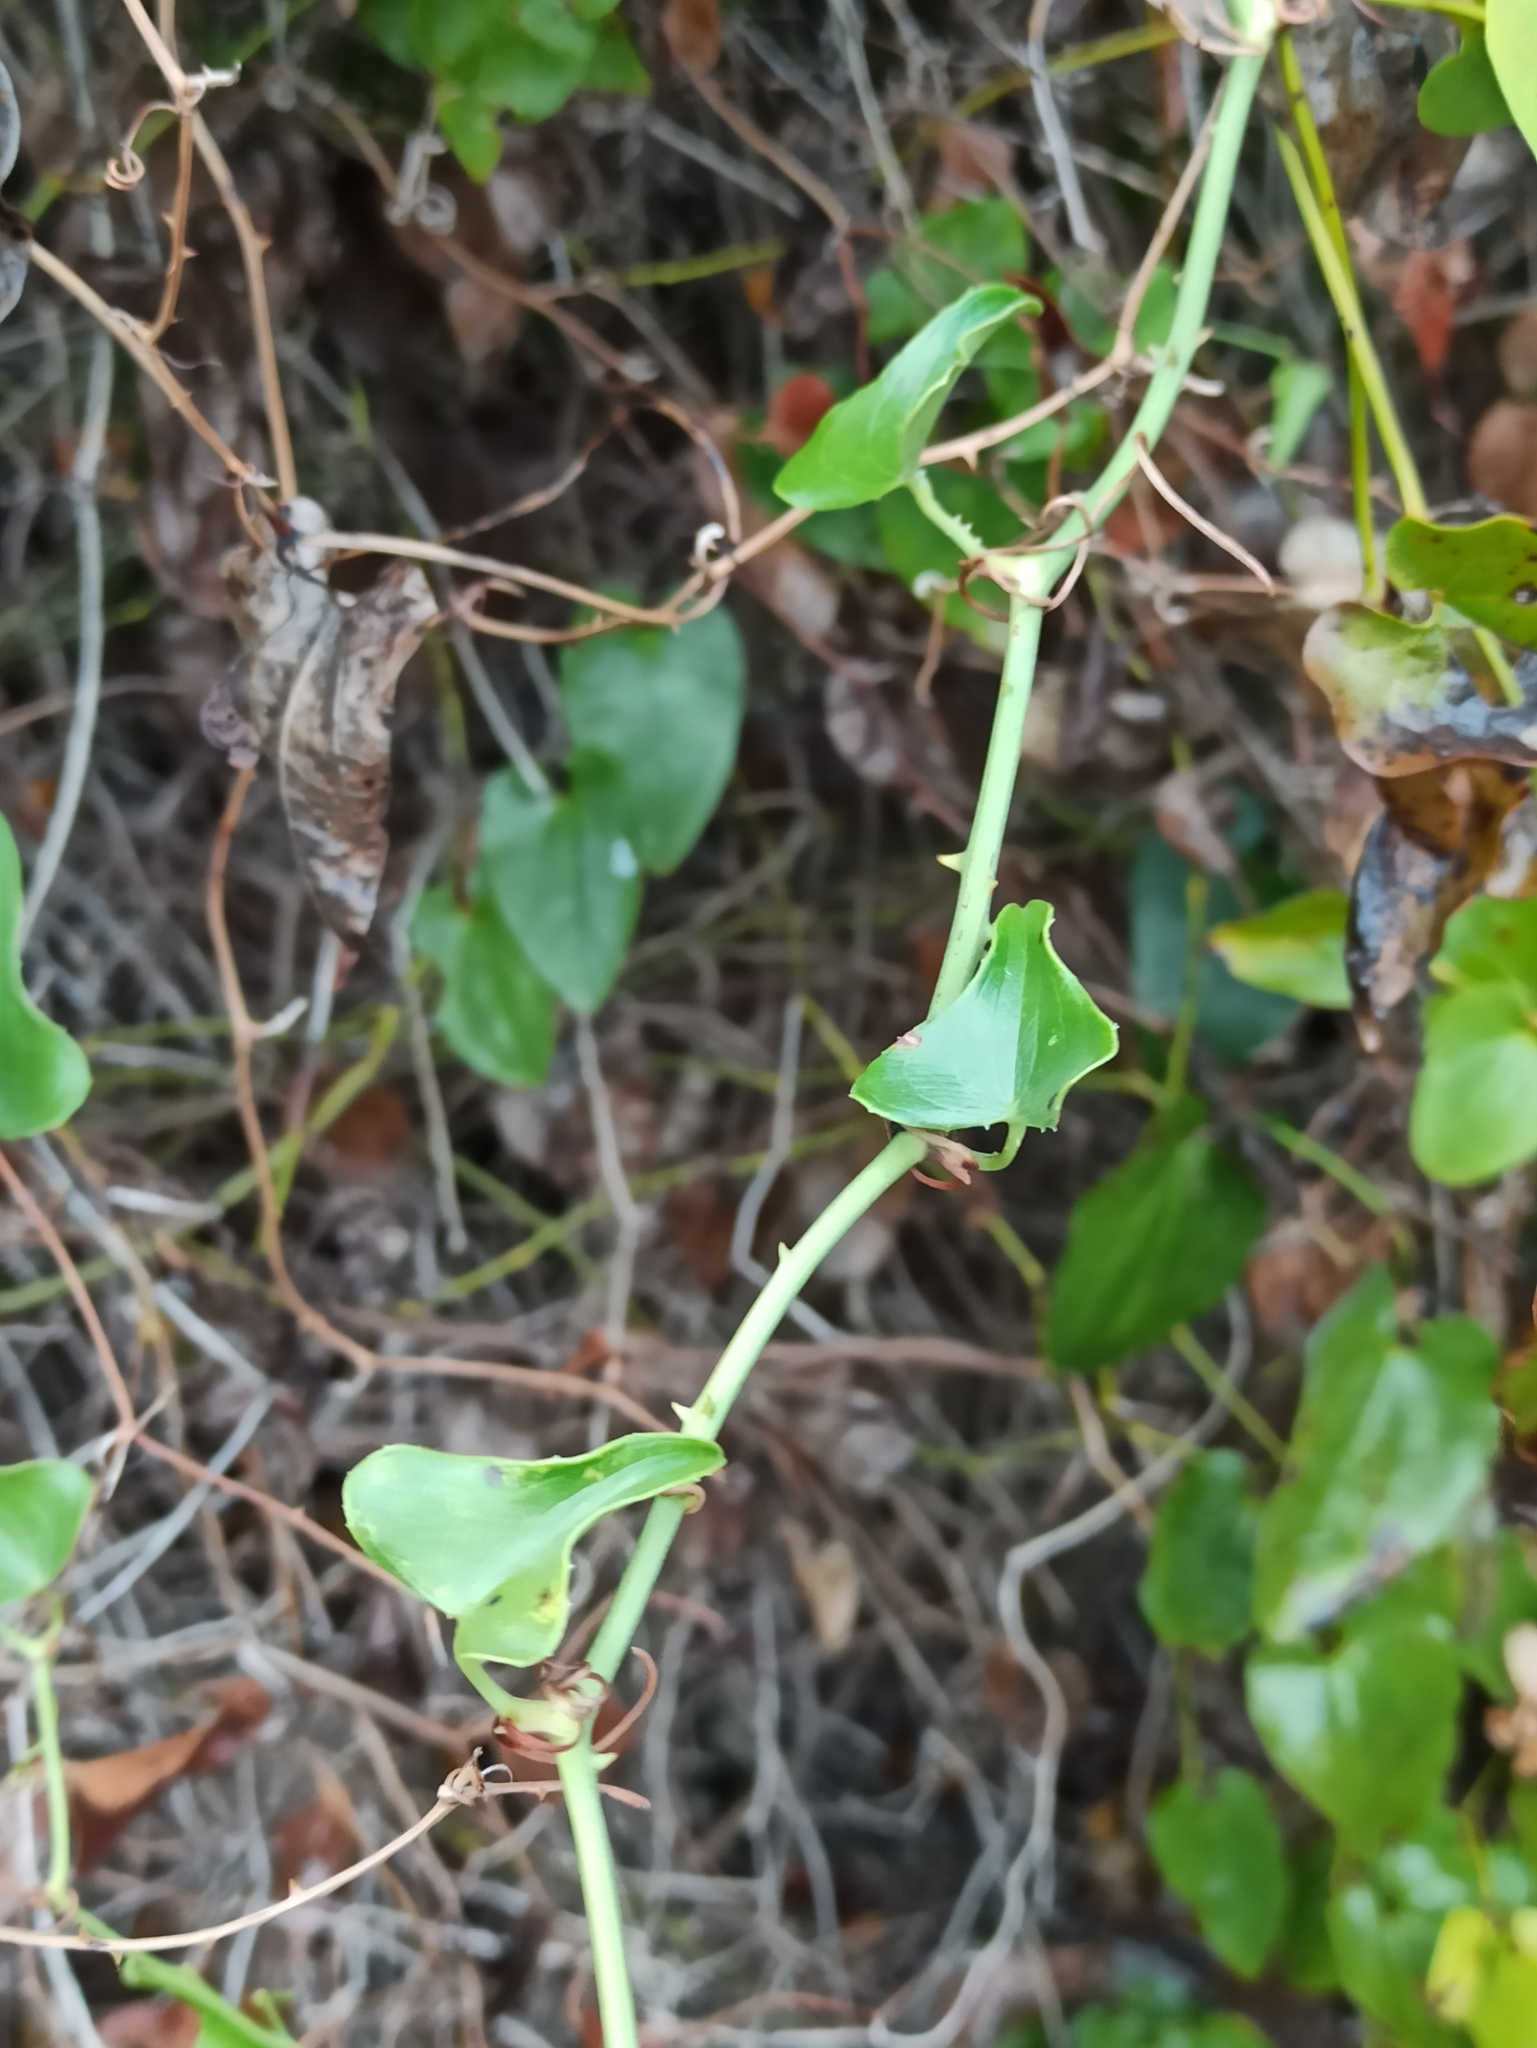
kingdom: Plantae
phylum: Tracheophyta
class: Liliopsida
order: Liliales
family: Smilacaceae
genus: Smilax
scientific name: Smilax aspera
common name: Common smilax
